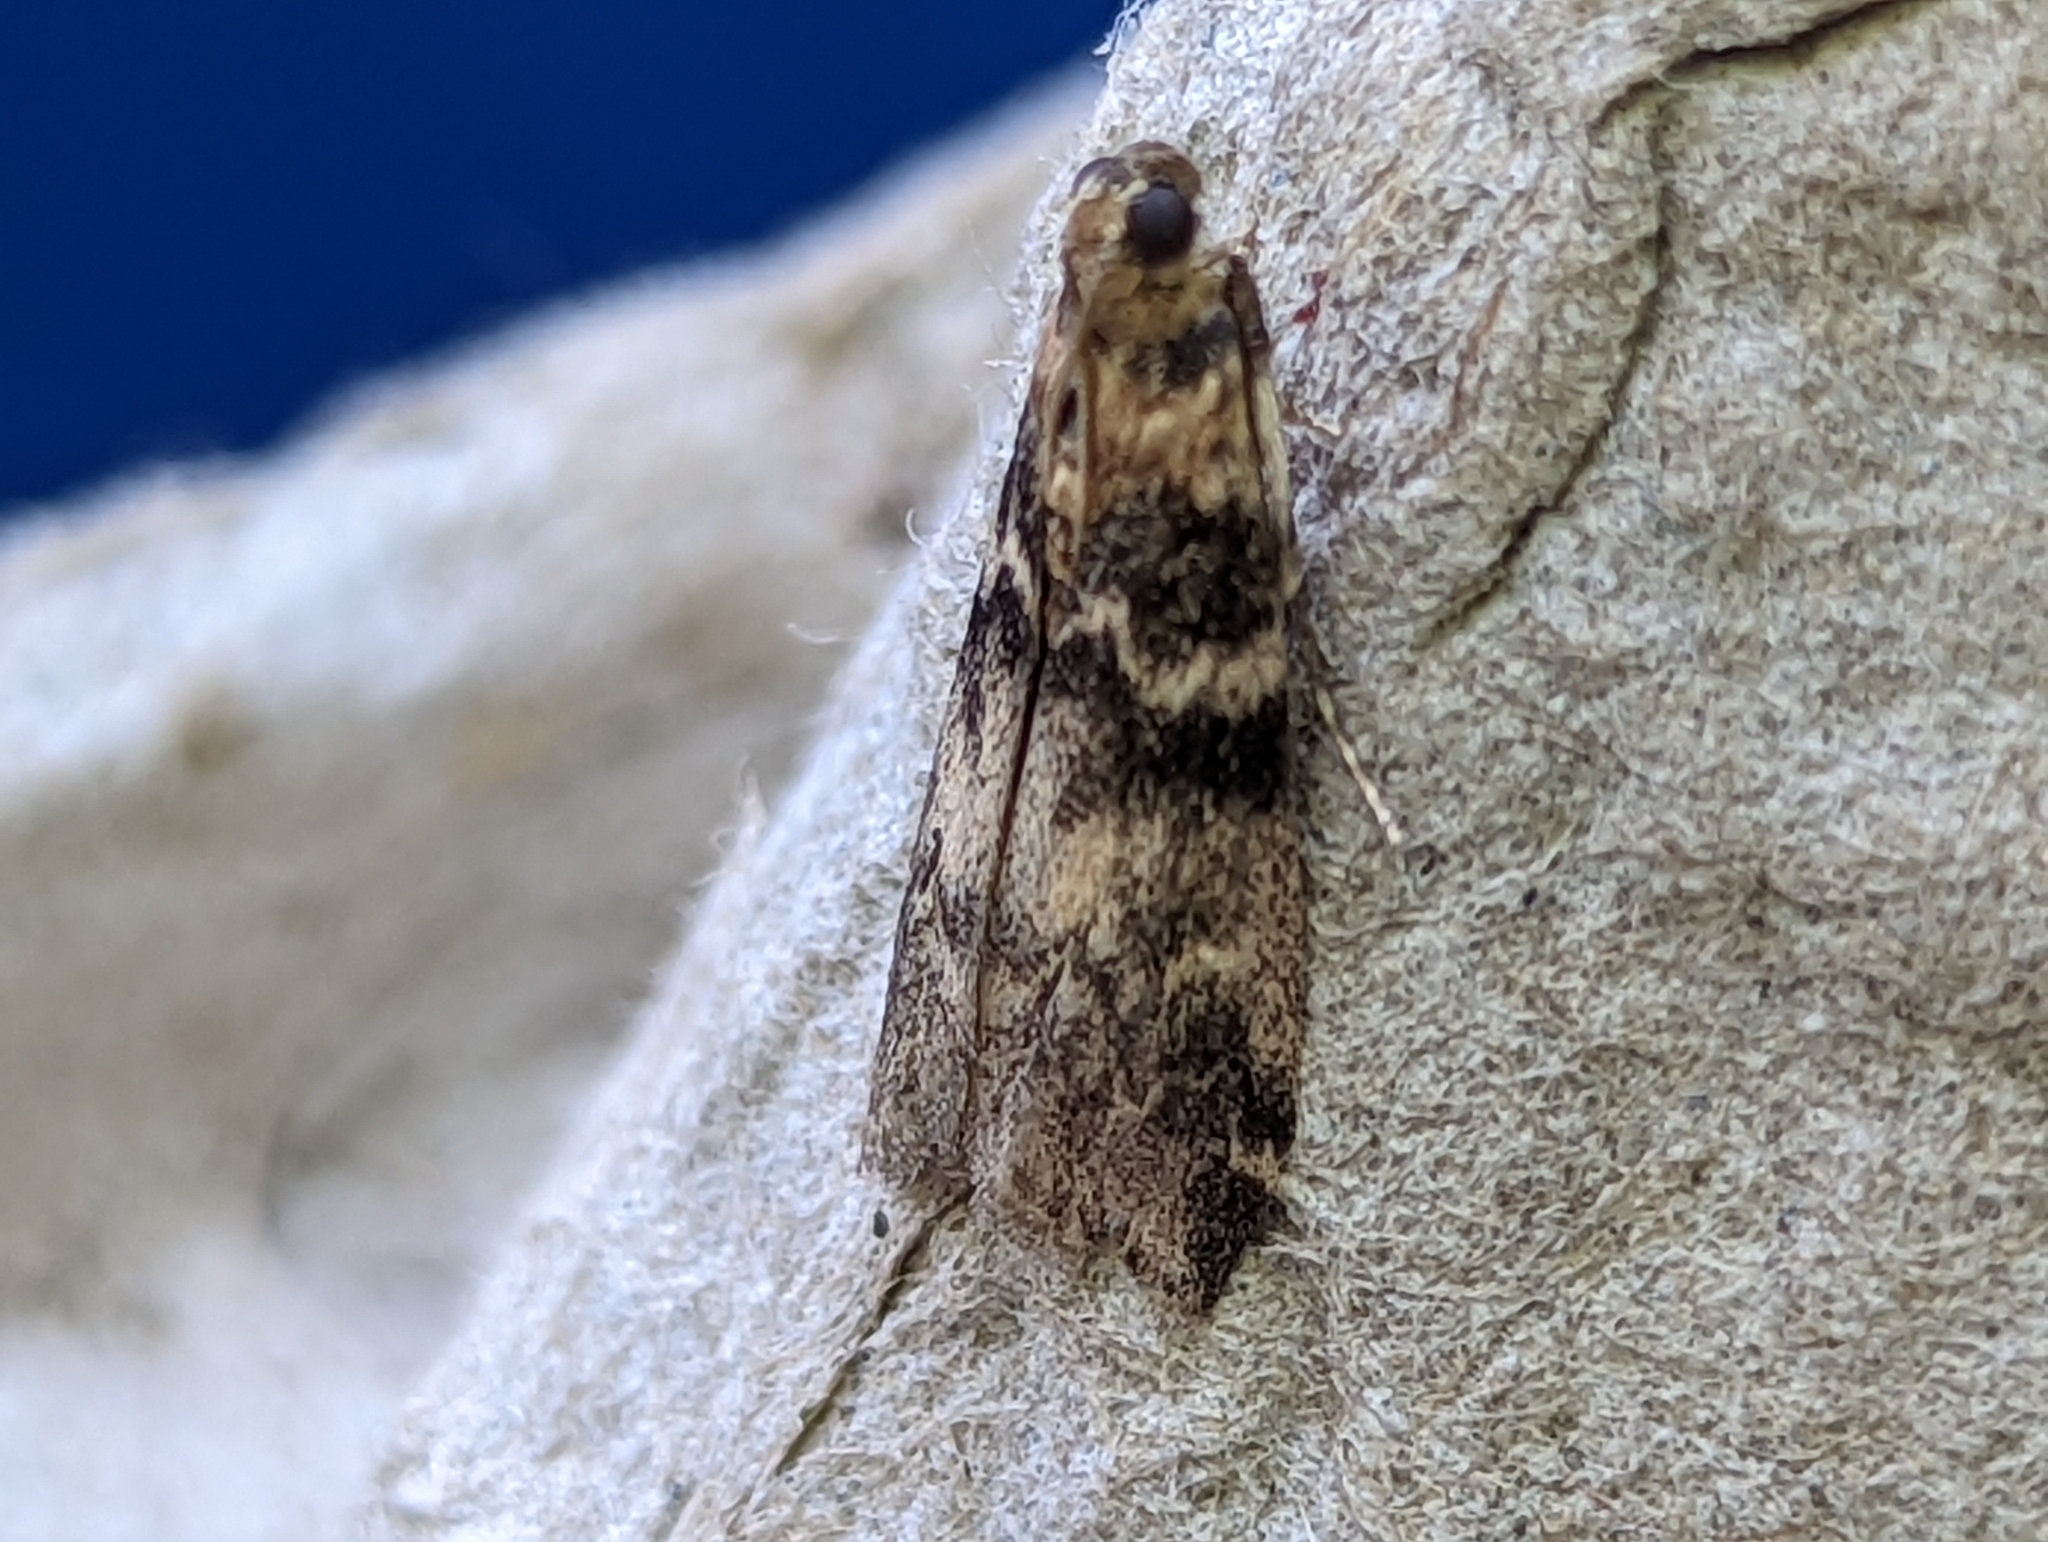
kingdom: Animalia
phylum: Arthropoda
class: Insecta
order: Lepidoptera
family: Pyralidae
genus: Euzophera
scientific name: Euzophera pinguis
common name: Ash-bark knot-horn
